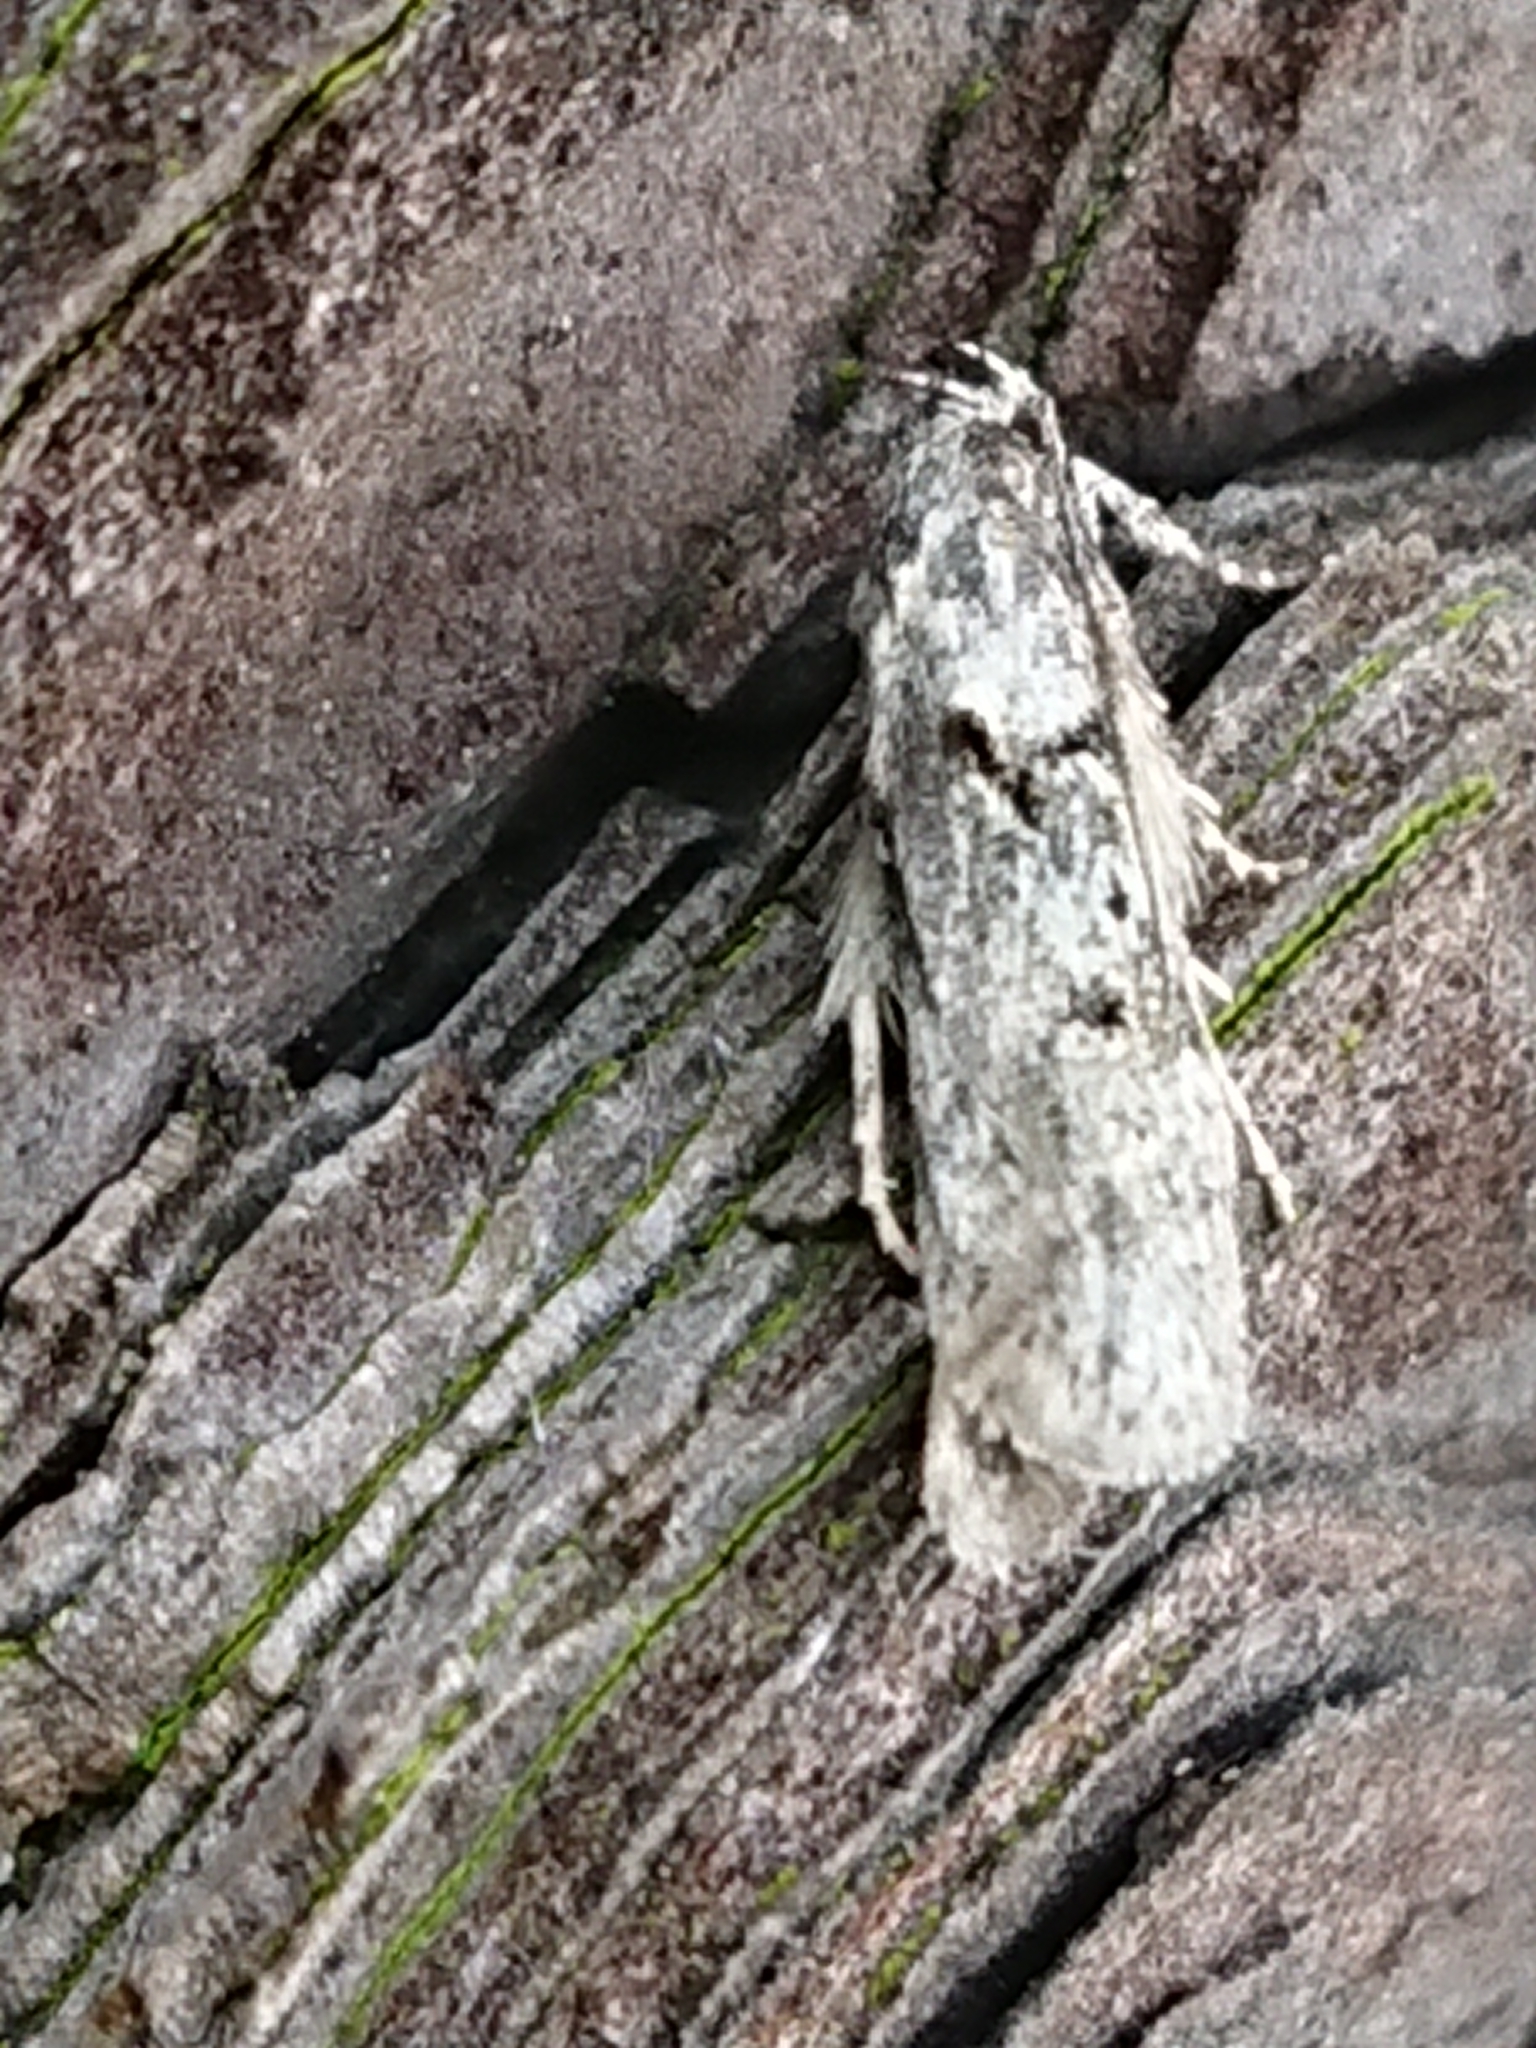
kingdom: Animalia
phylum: Arthropoda
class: Insecta
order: Lepidoptera
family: Oecophoridae
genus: Izatha
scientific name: Izatha convulsella
